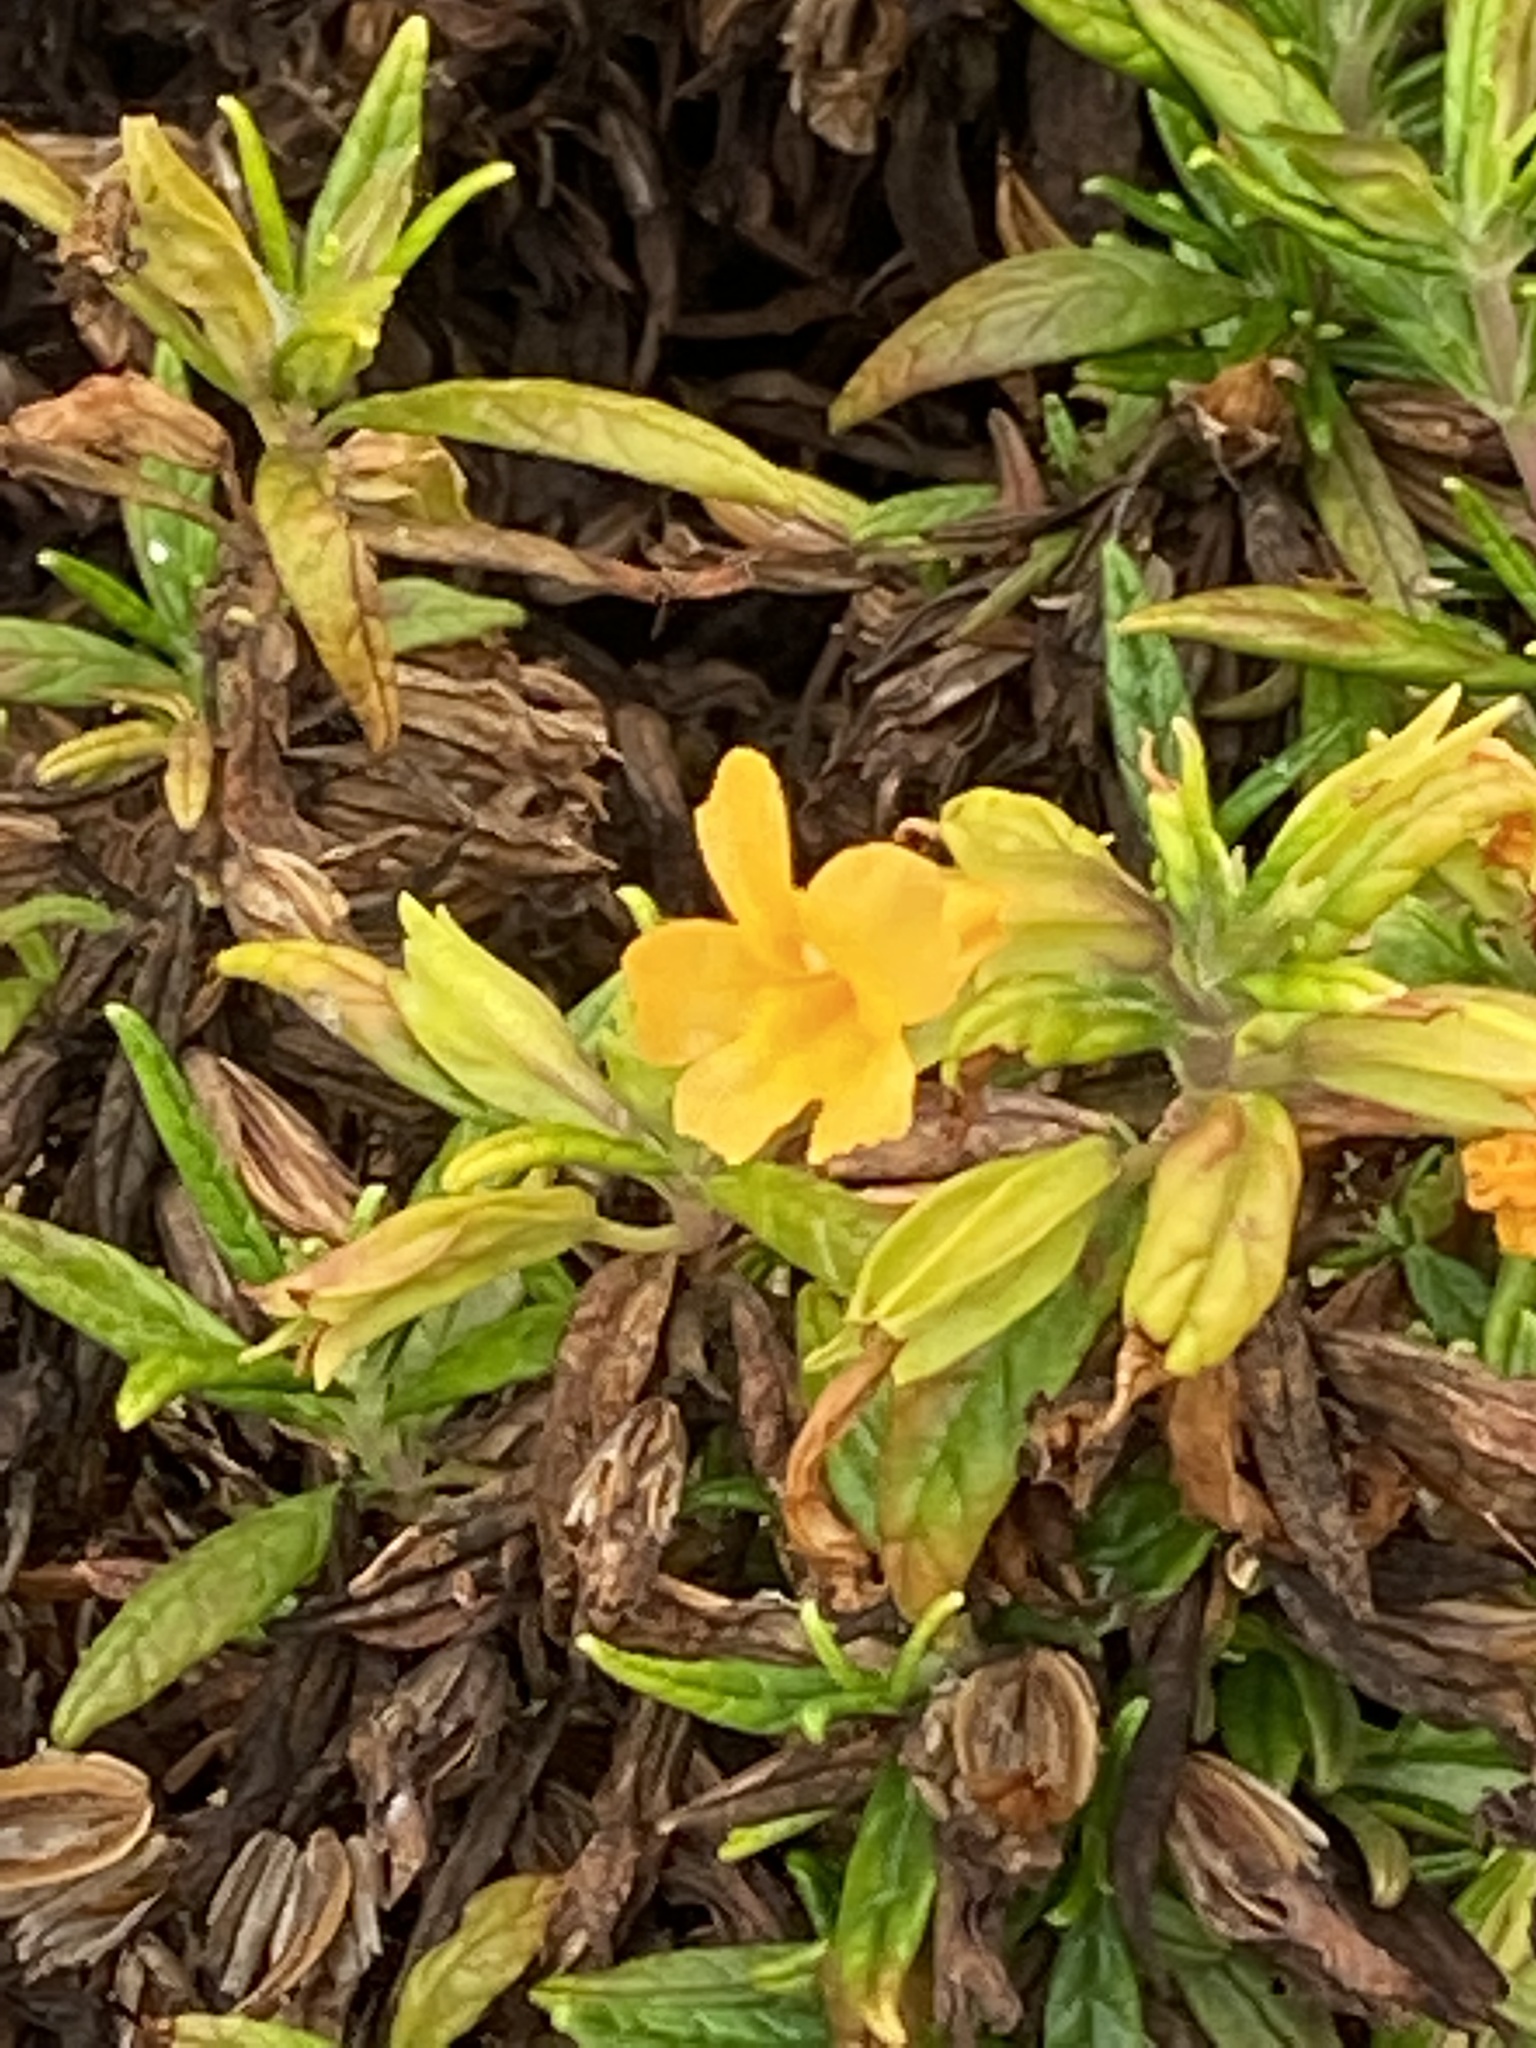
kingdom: Plantae
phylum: Tracheophyta
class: Magnoliopsida
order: Lamiales
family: Phrymaceae
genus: Diplacus
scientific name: Diplacus aurantiacus
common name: Bush monkey-flower
